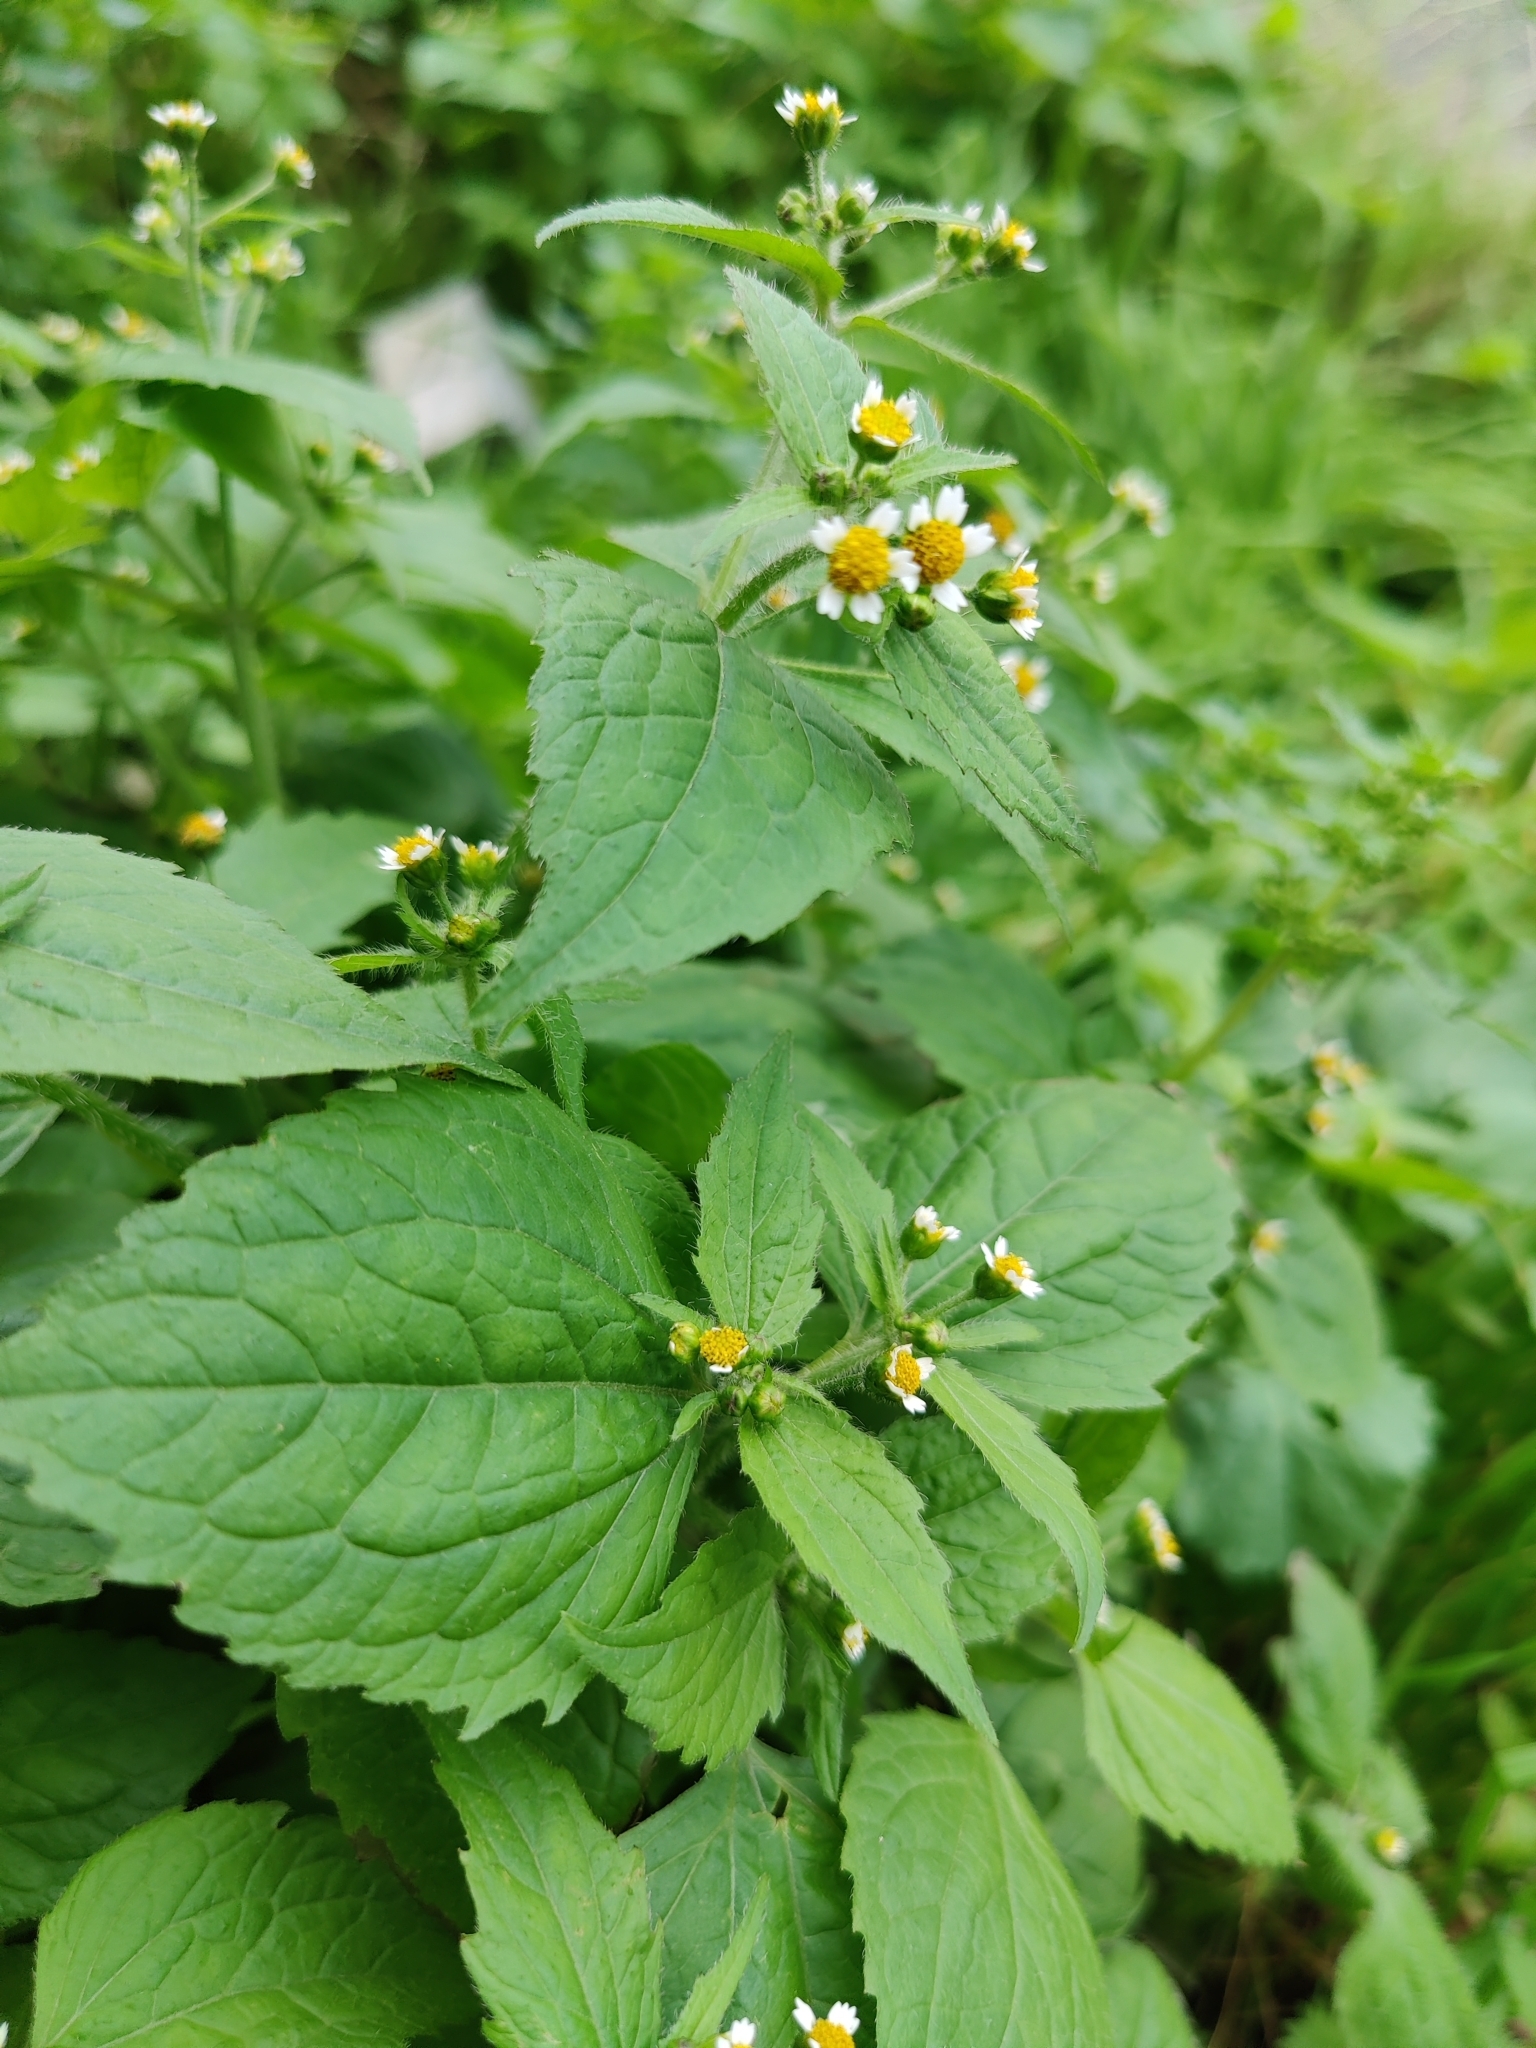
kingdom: Plantae
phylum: Tracheophyta
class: Magnoliopsida
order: Asterales
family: Asteraceae
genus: Galinsoga
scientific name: Galinsoga quadriradiata
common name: Shaggy soldier
